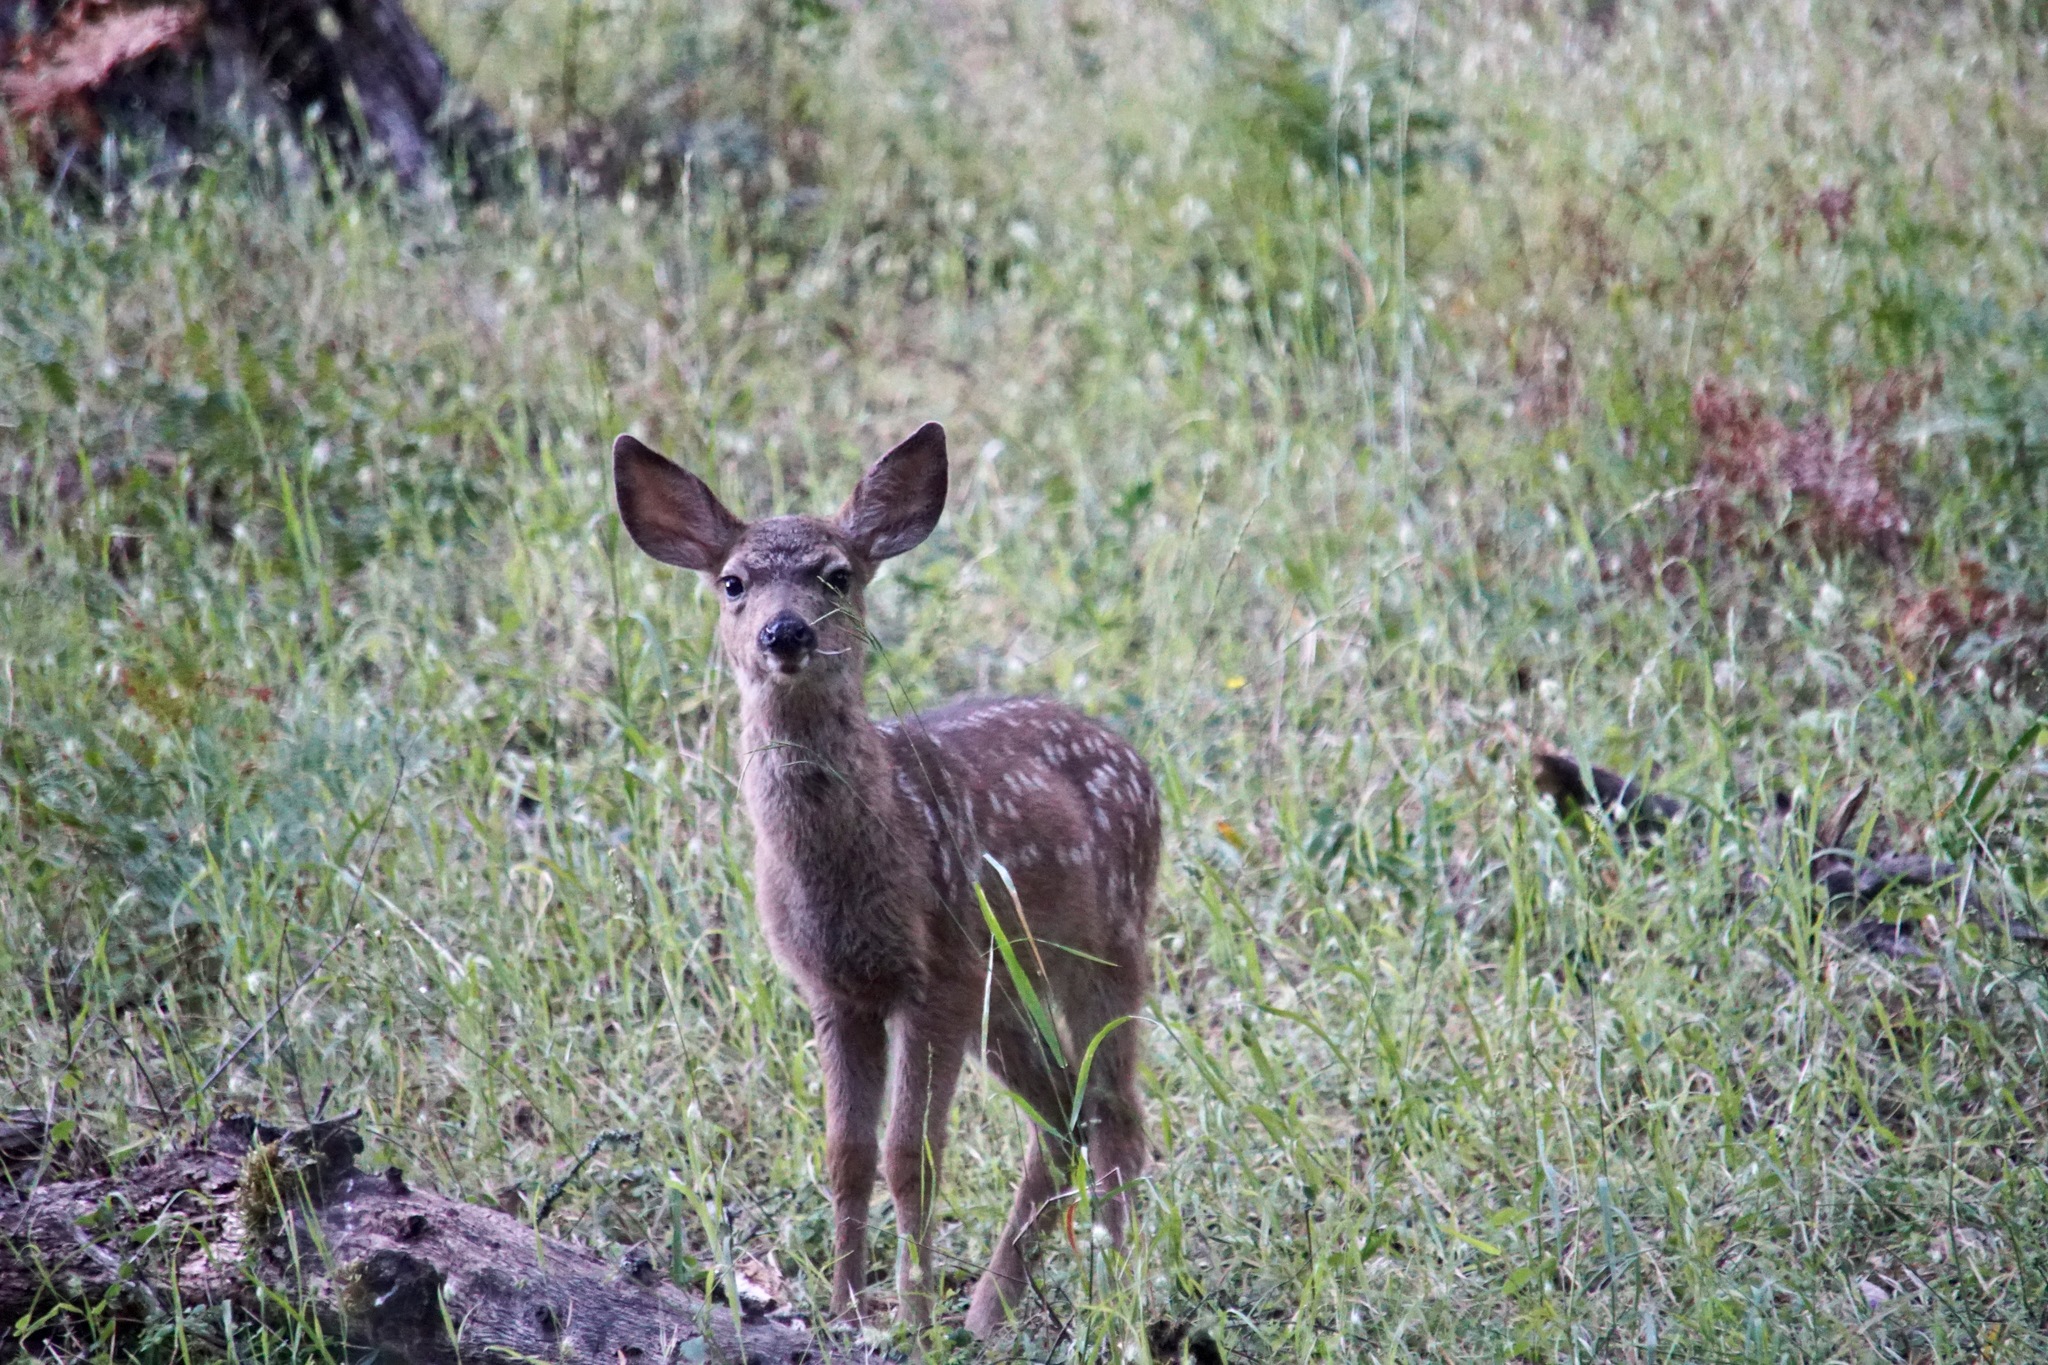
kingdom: Animalia
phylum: Chordata
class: Mammalia
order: Artiodactyla
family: Cervidae
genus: Odocoileus
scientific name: Odocoileus hemionus
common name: Mule deer
